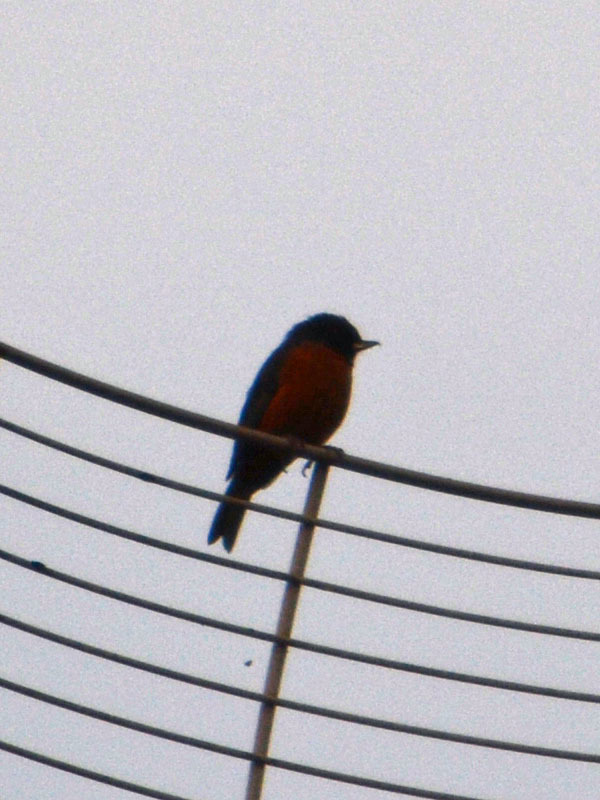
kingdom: Animalia
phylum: Chordata
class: Aves
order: Passeriformes
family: Thraupidae
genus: Diglossa
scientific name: Diglossa baritula
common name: Cinnamon-bellied flowerpiercer
